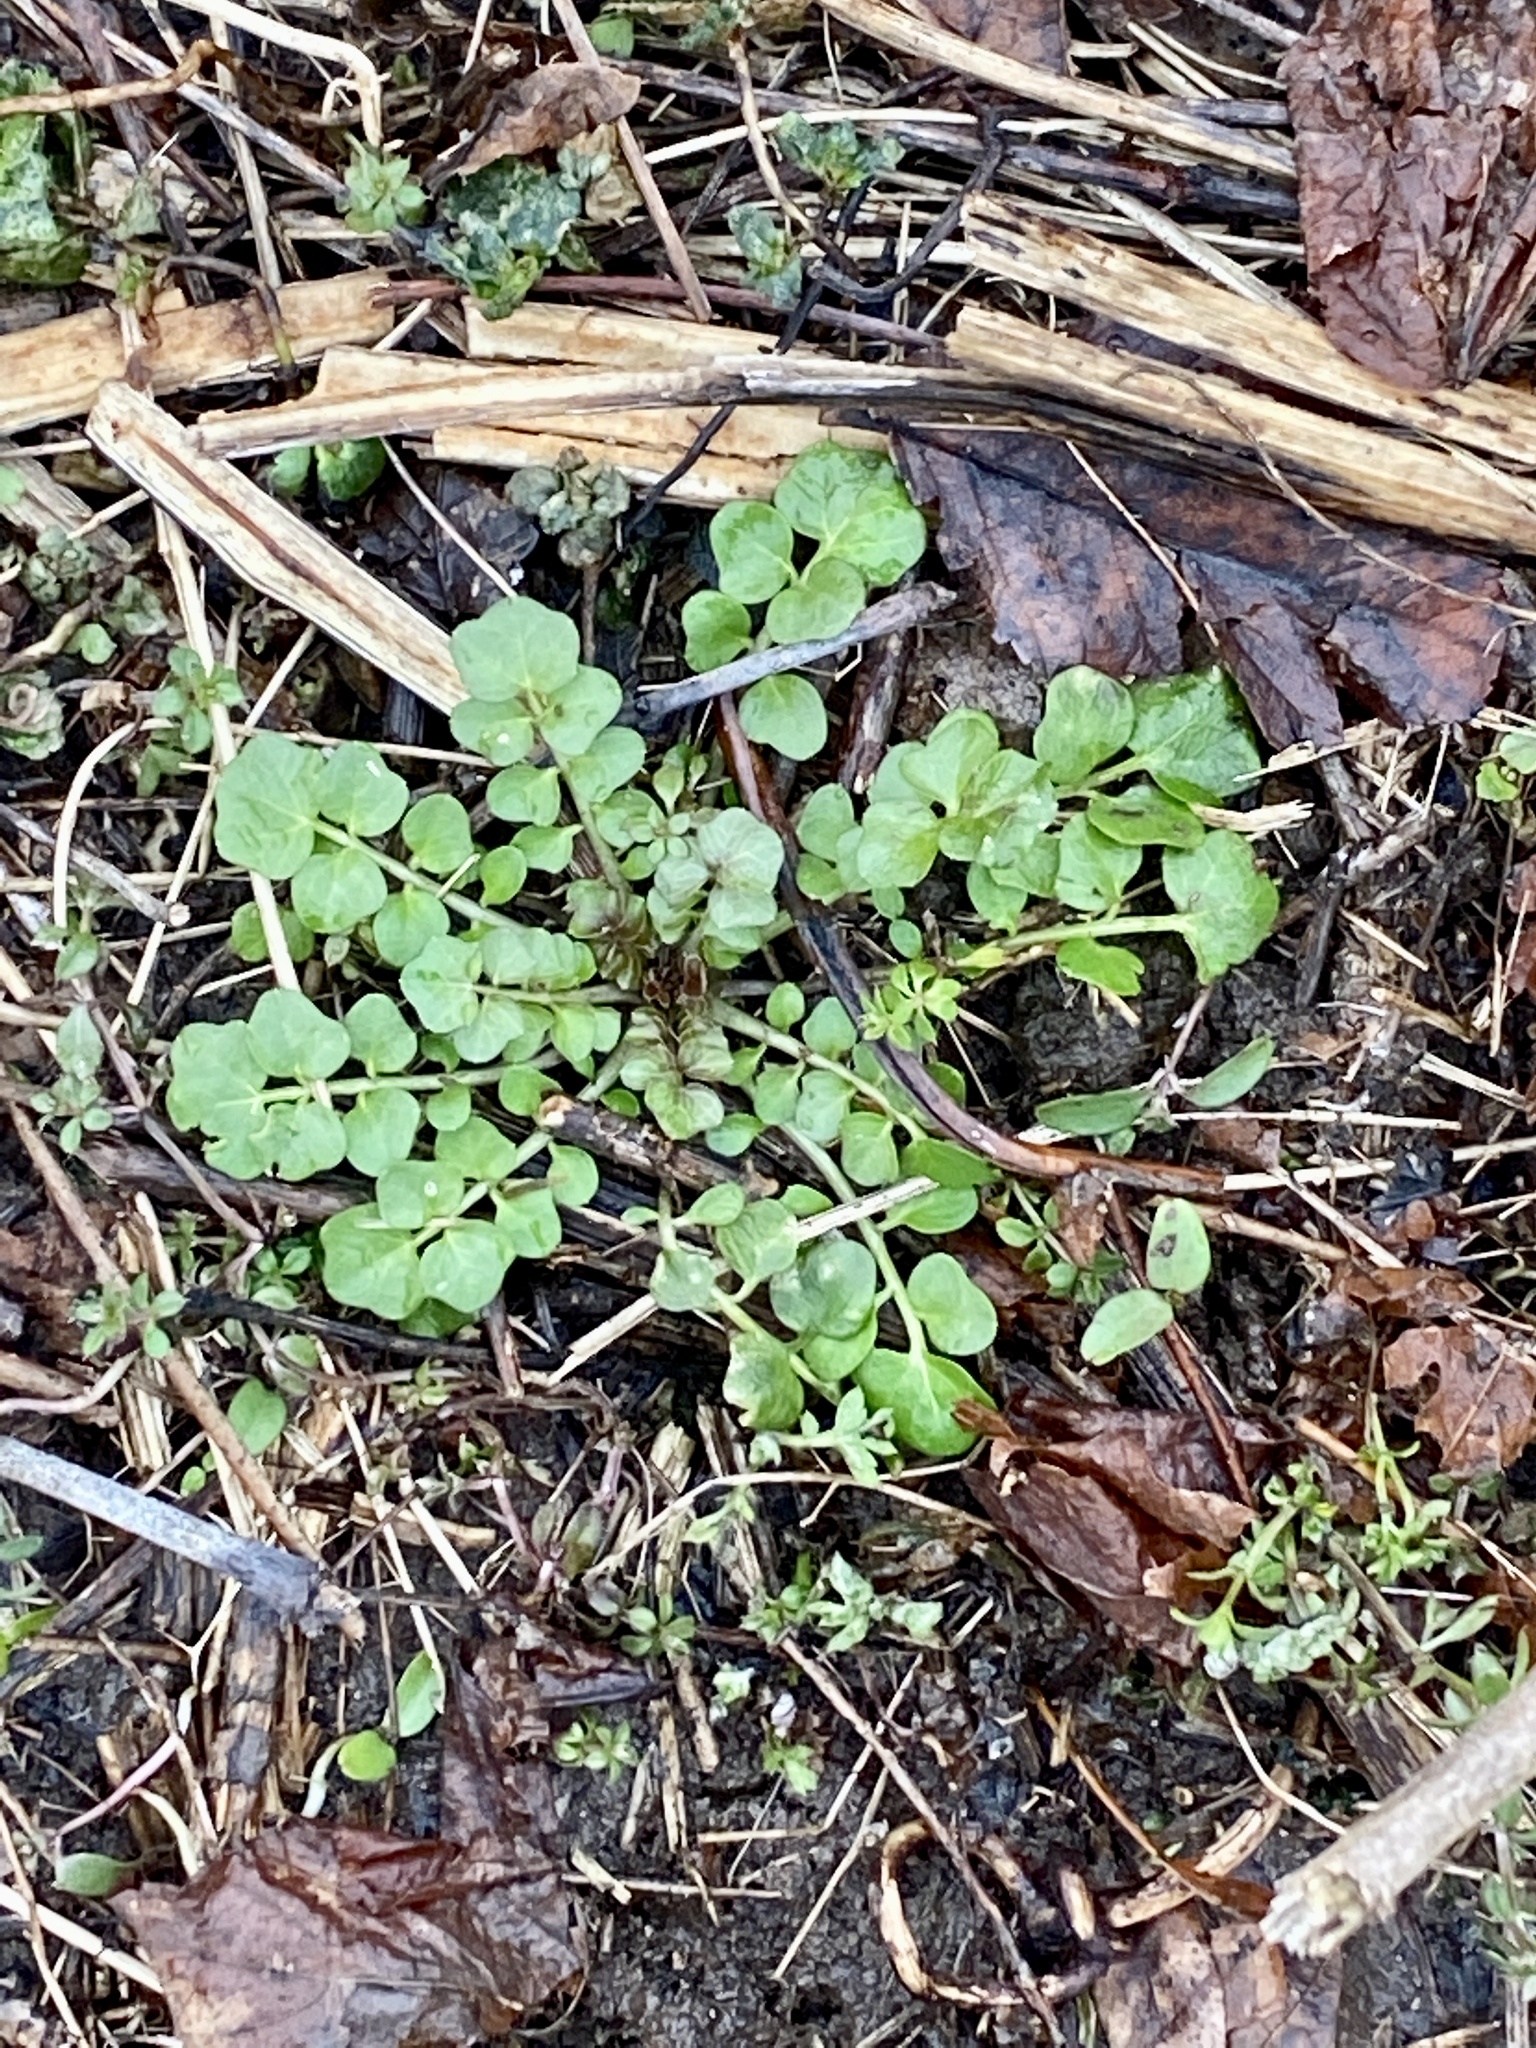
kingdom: Plantae
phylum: Tracheophyta
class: Magnoliopsida
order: Brassicales
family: Brassicaceae
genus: Cardamine
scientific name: Cardamine hirsuta
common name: Hairy bittercress
